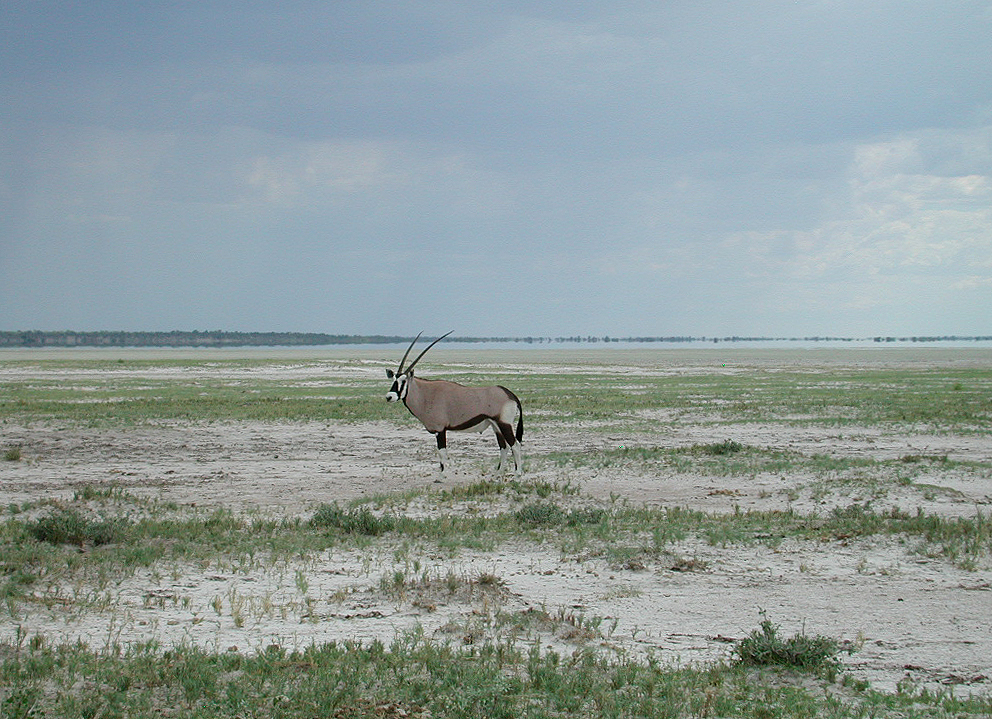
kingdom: Animalia
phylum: Chordata
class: Mammalia
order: Artiodactyla
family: Bovidae
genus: Oryx
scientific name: Oryx gazella
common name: Gemsbok
